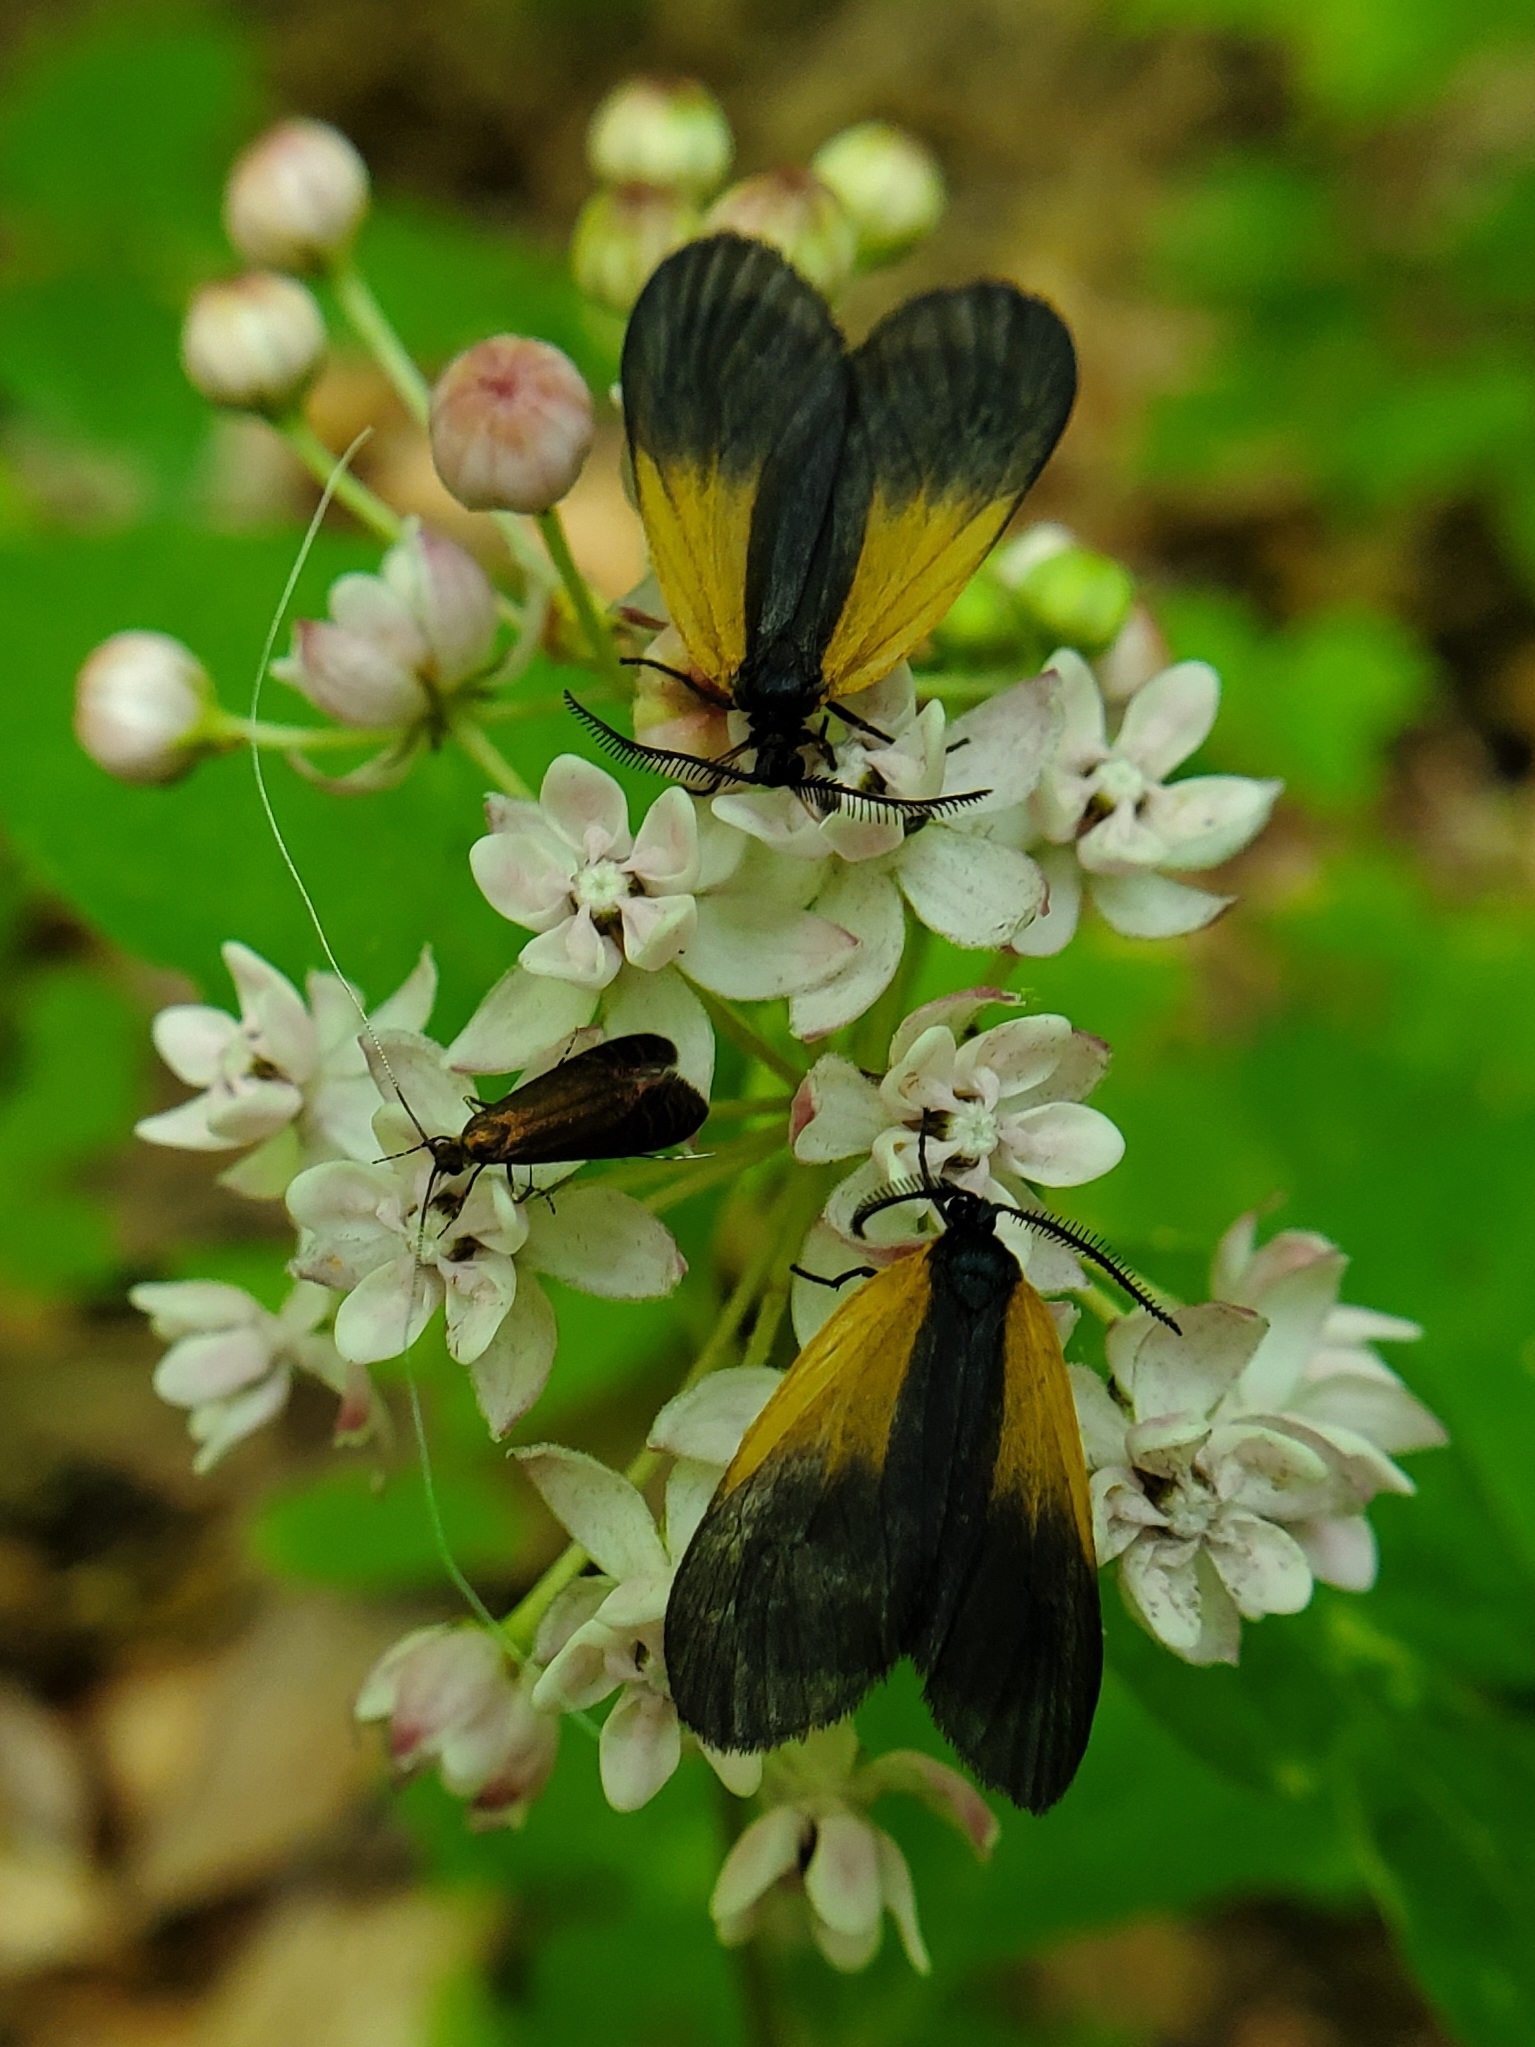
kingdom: Plantae
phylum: Tracheophyta
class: Magnoliopsida
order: Gentianales
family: Apocynaceae
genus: Asclepias
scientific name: Asclepias quadrifolia
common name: Whorled milkweed
